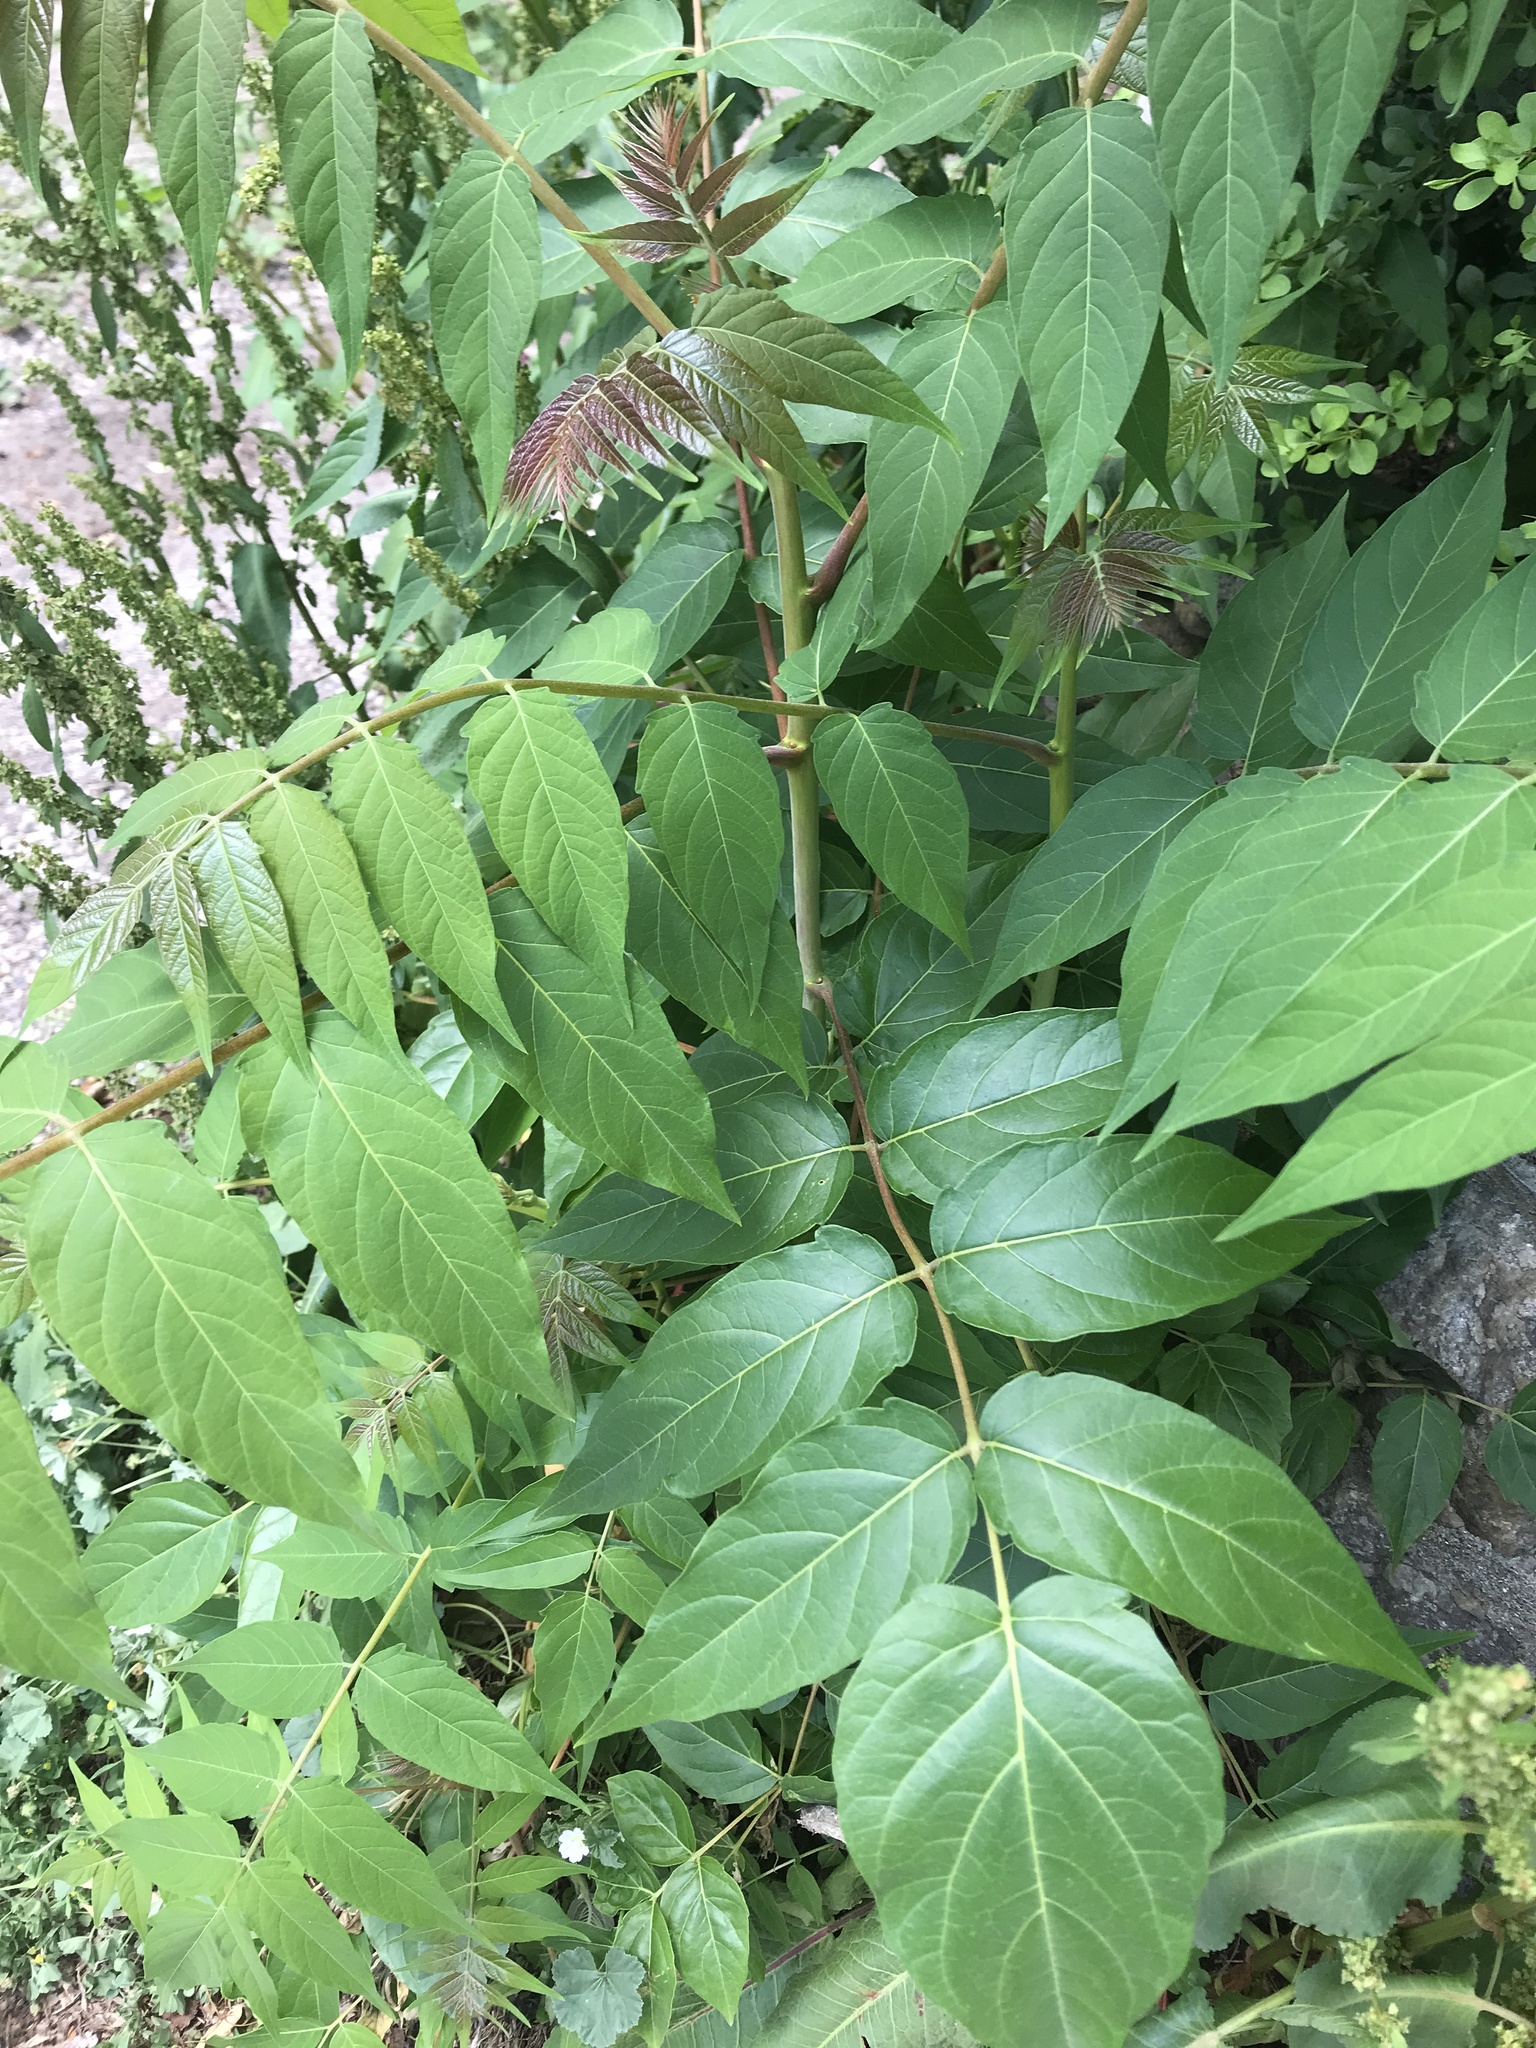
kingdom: Plantae
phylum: Tracheophyta
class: Magnoliopsida
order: Sapindales
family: Simaroubaceae
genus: Ailanthus
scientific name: Ailanthus altissima
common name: Tree-of-heaven
